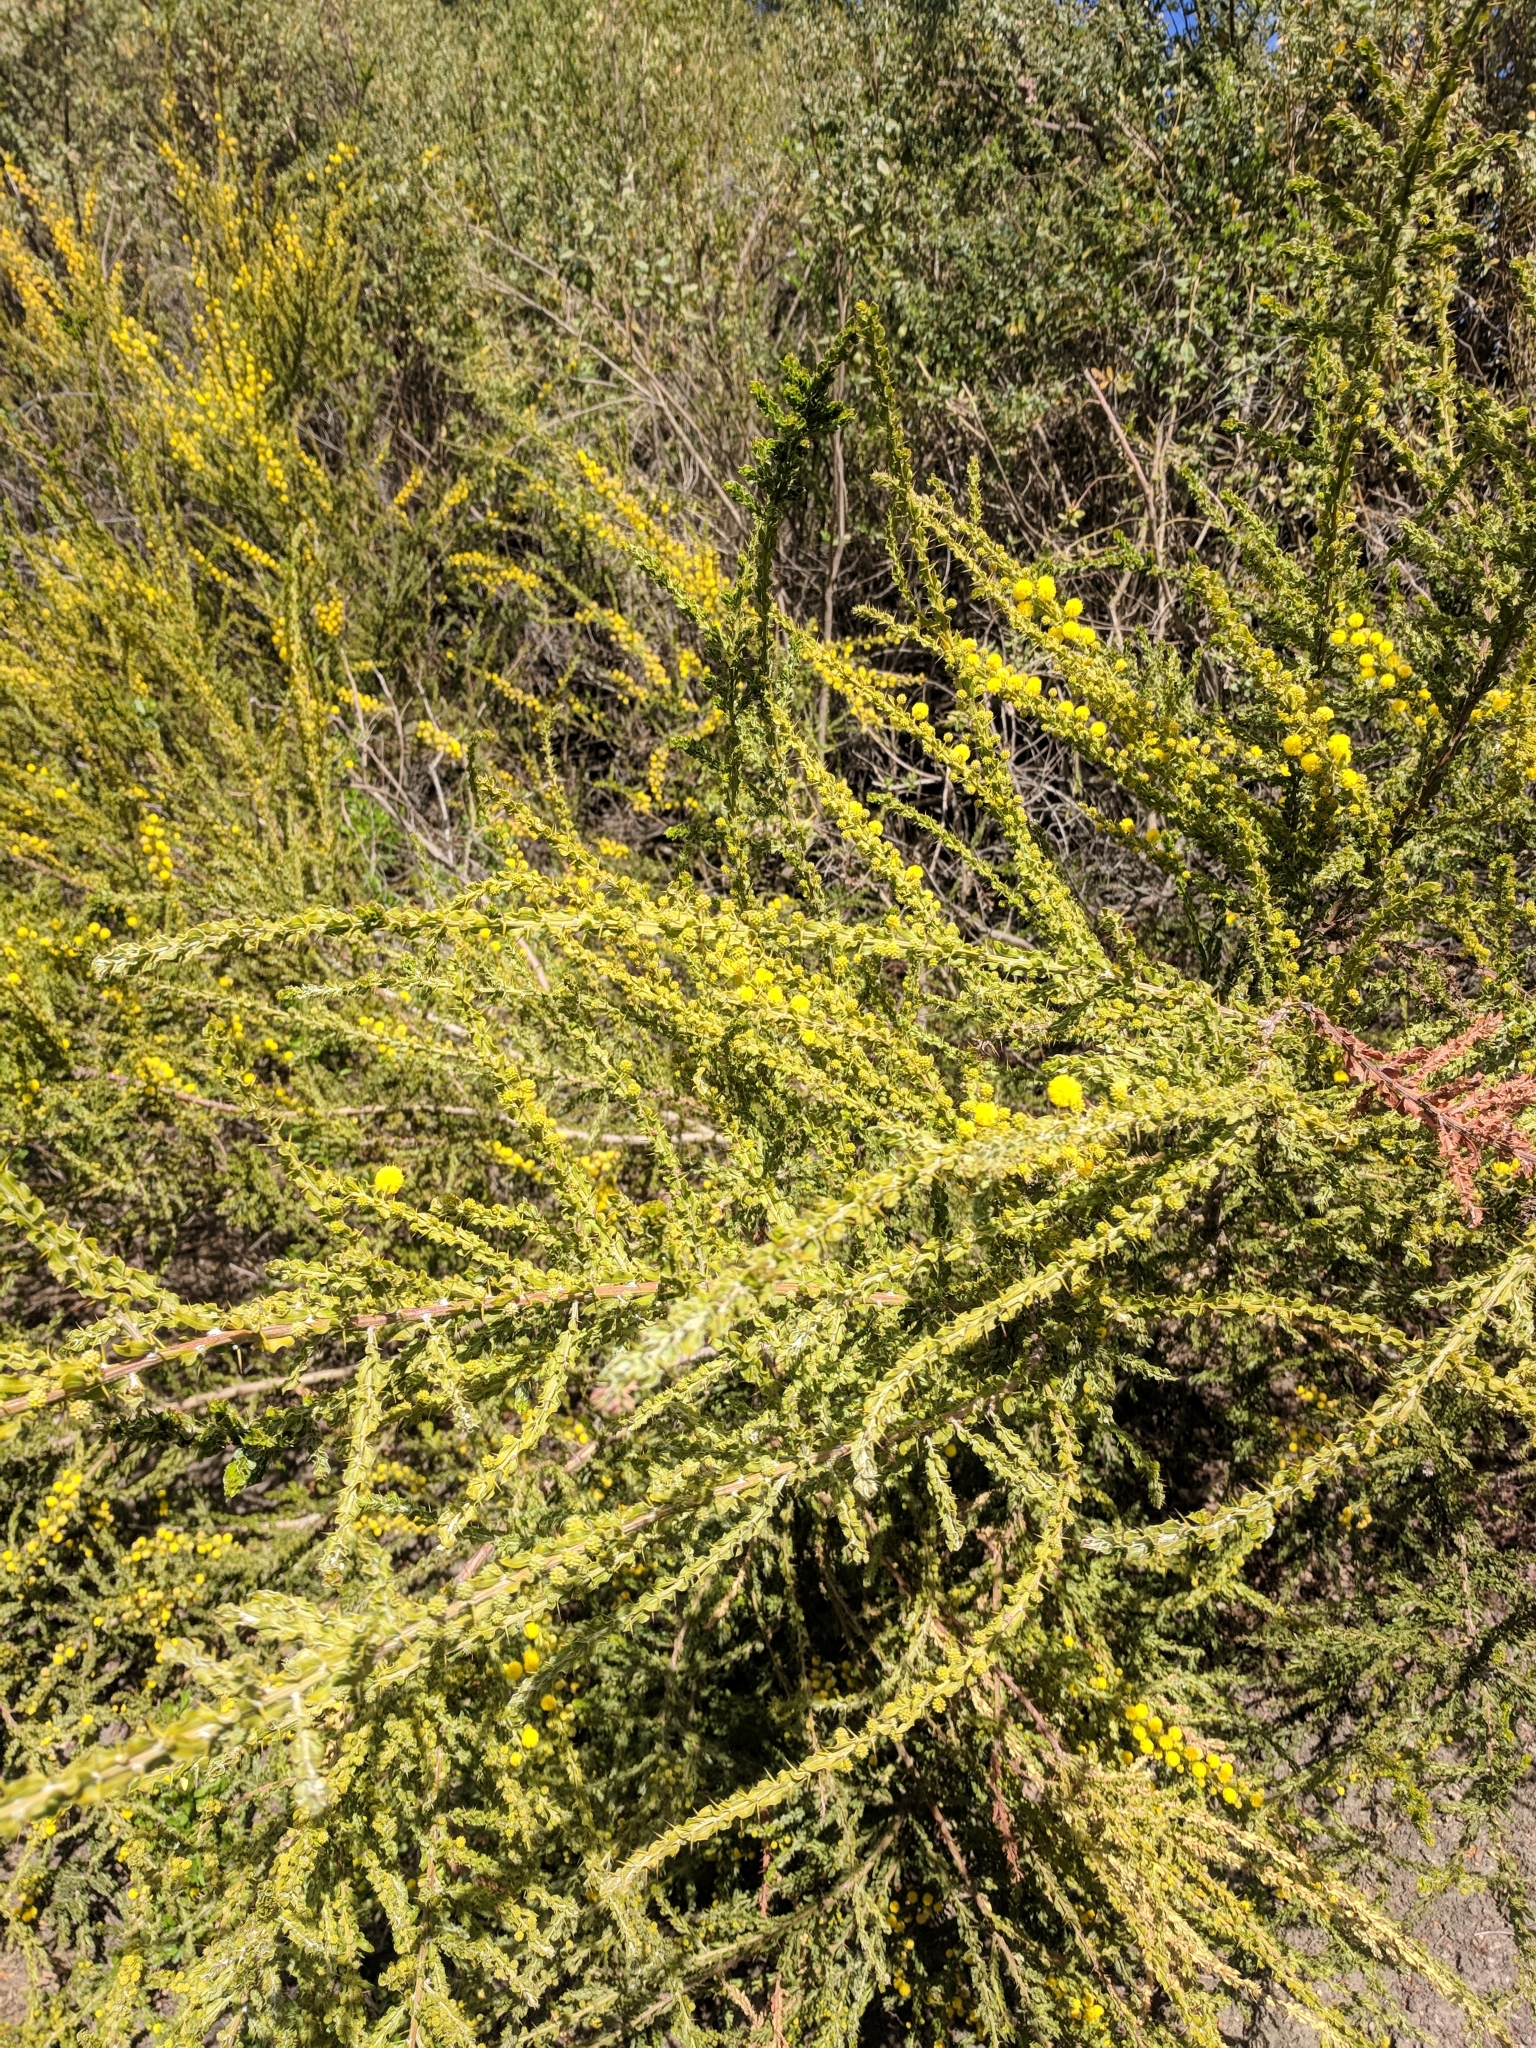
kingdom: Plantae
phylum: Tracheophyta
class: Magnoliopsida
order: Fabales
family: Fabaceae
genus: Acacia
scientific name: Acacia paradoxa
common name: Paradox acacia
